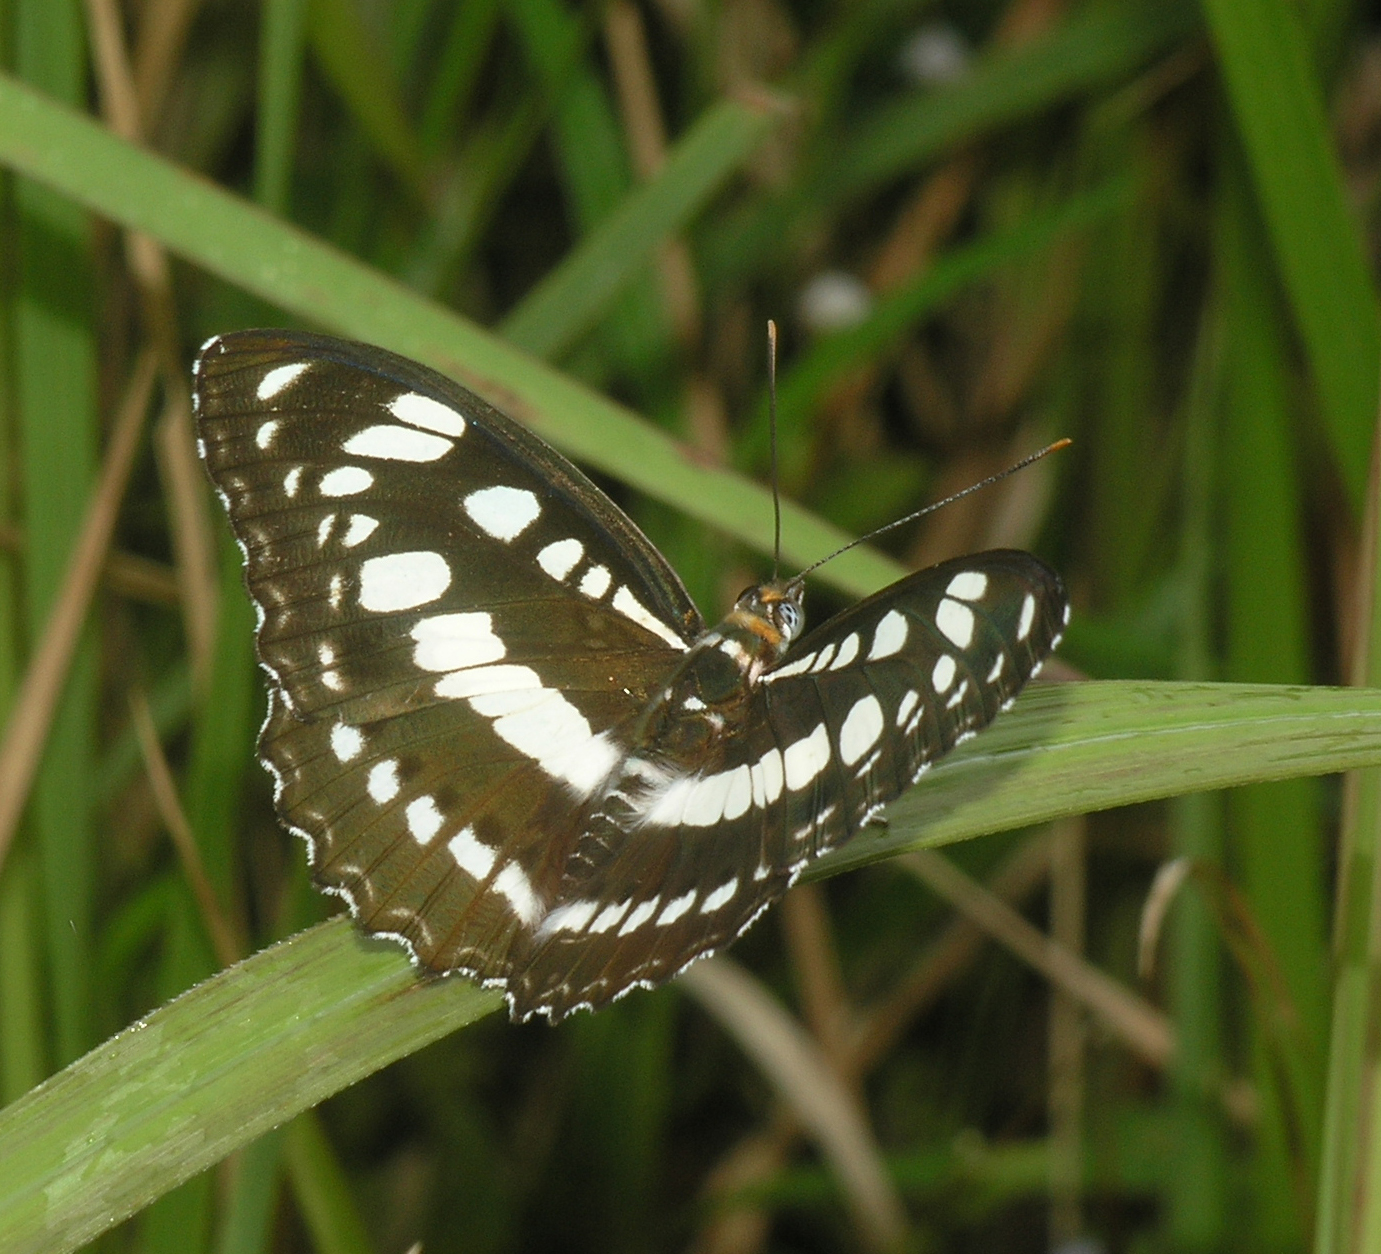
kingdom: Animalia
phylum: Arthropoda
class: Insecta
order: Lepidoptera
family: Nymphalidae
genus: Parathyma
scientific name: Parathyma perius
